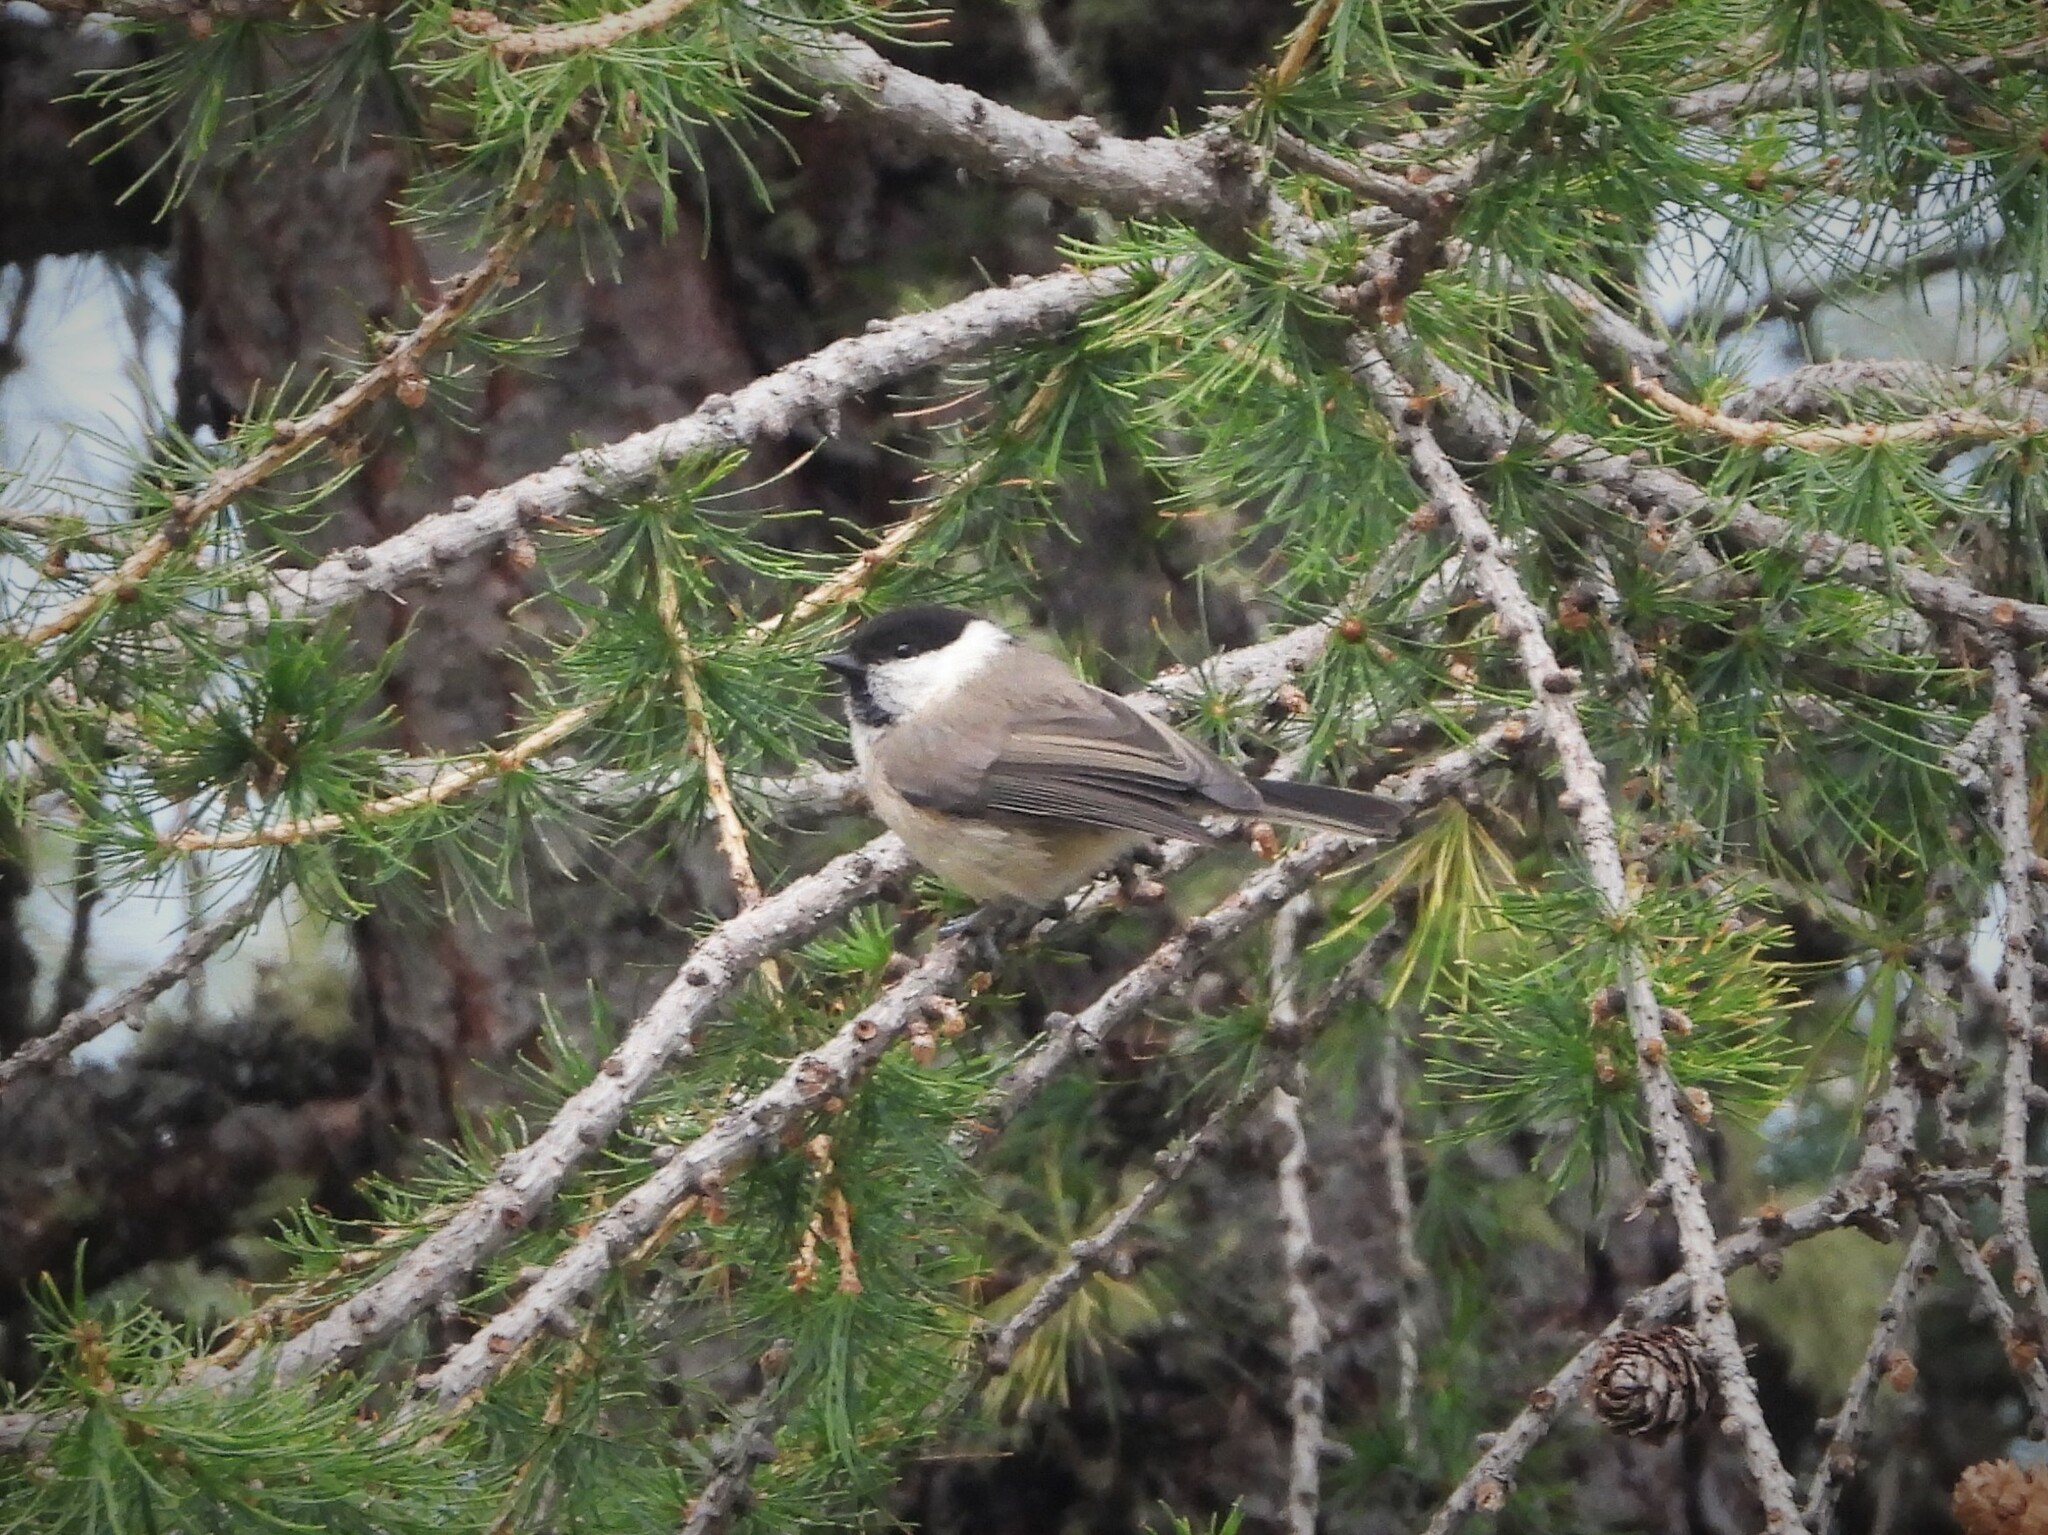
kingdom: Animalia
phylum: Chordata
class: Aves
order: Passeriformes
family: Paridae
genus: Poecile
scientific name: Poecile montanus
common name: Willow tit
